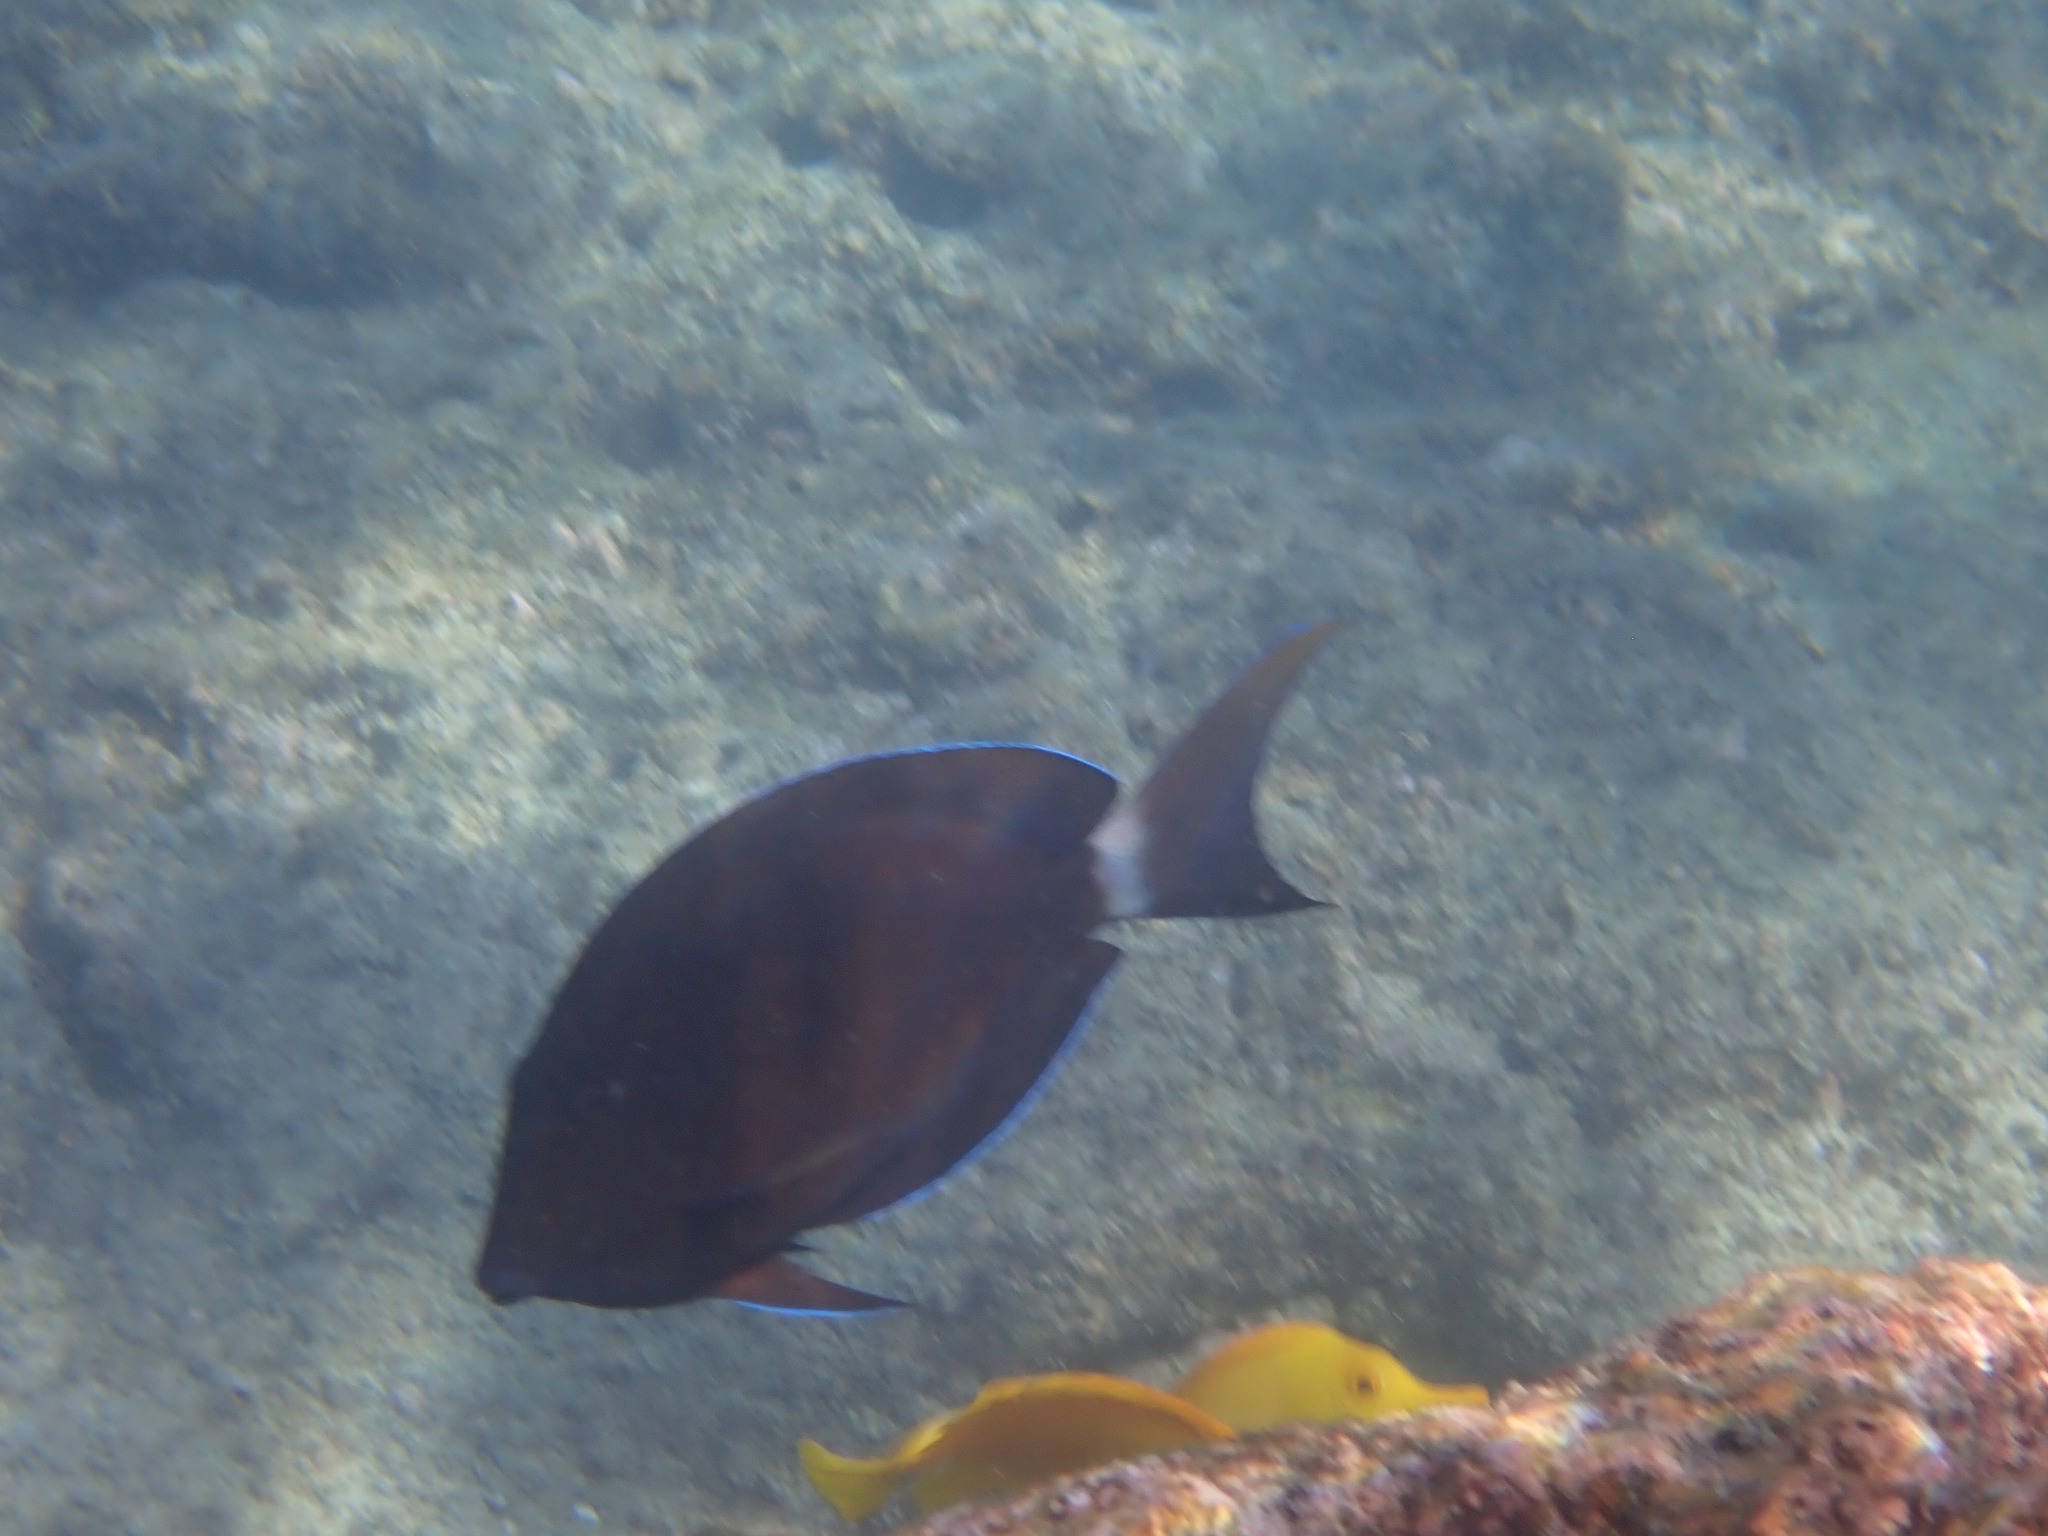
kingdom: Animalia
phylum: Chordata
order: Perciformes
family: Acanthuridae
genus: Acanthurus
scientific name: Acanthurus blochii
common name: Blue-banded pualu
